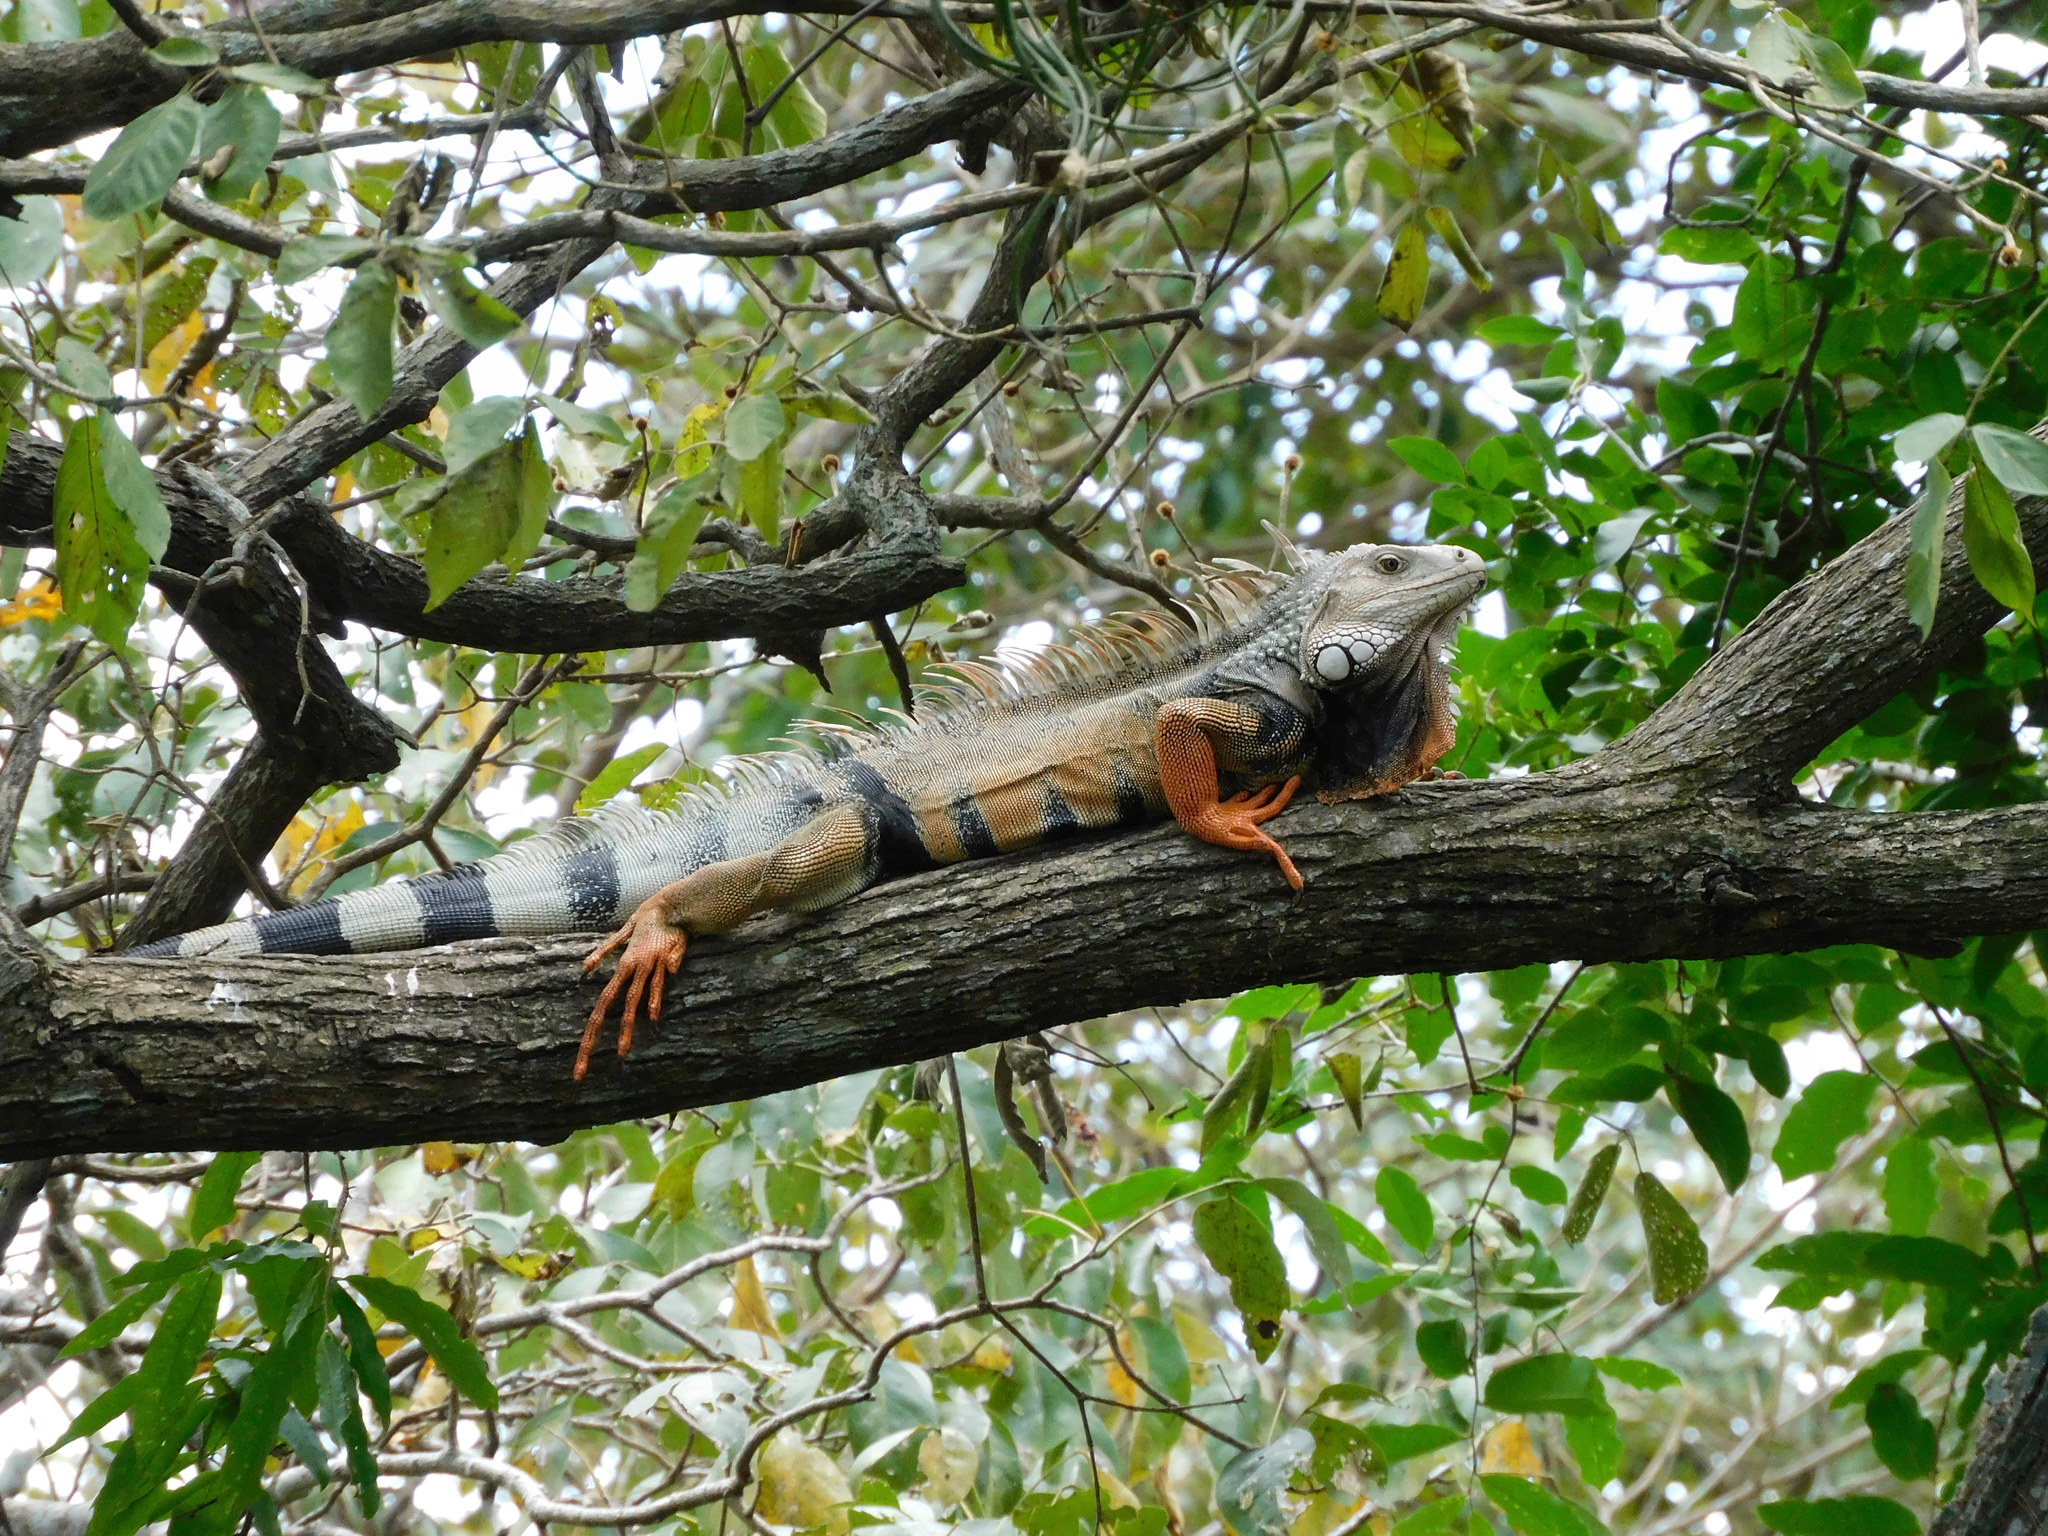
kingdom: Animalia
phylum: Chordata
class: Squamata
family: Iguanidae
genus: Iguana
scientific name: Iguana iguana
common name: Green iguana
